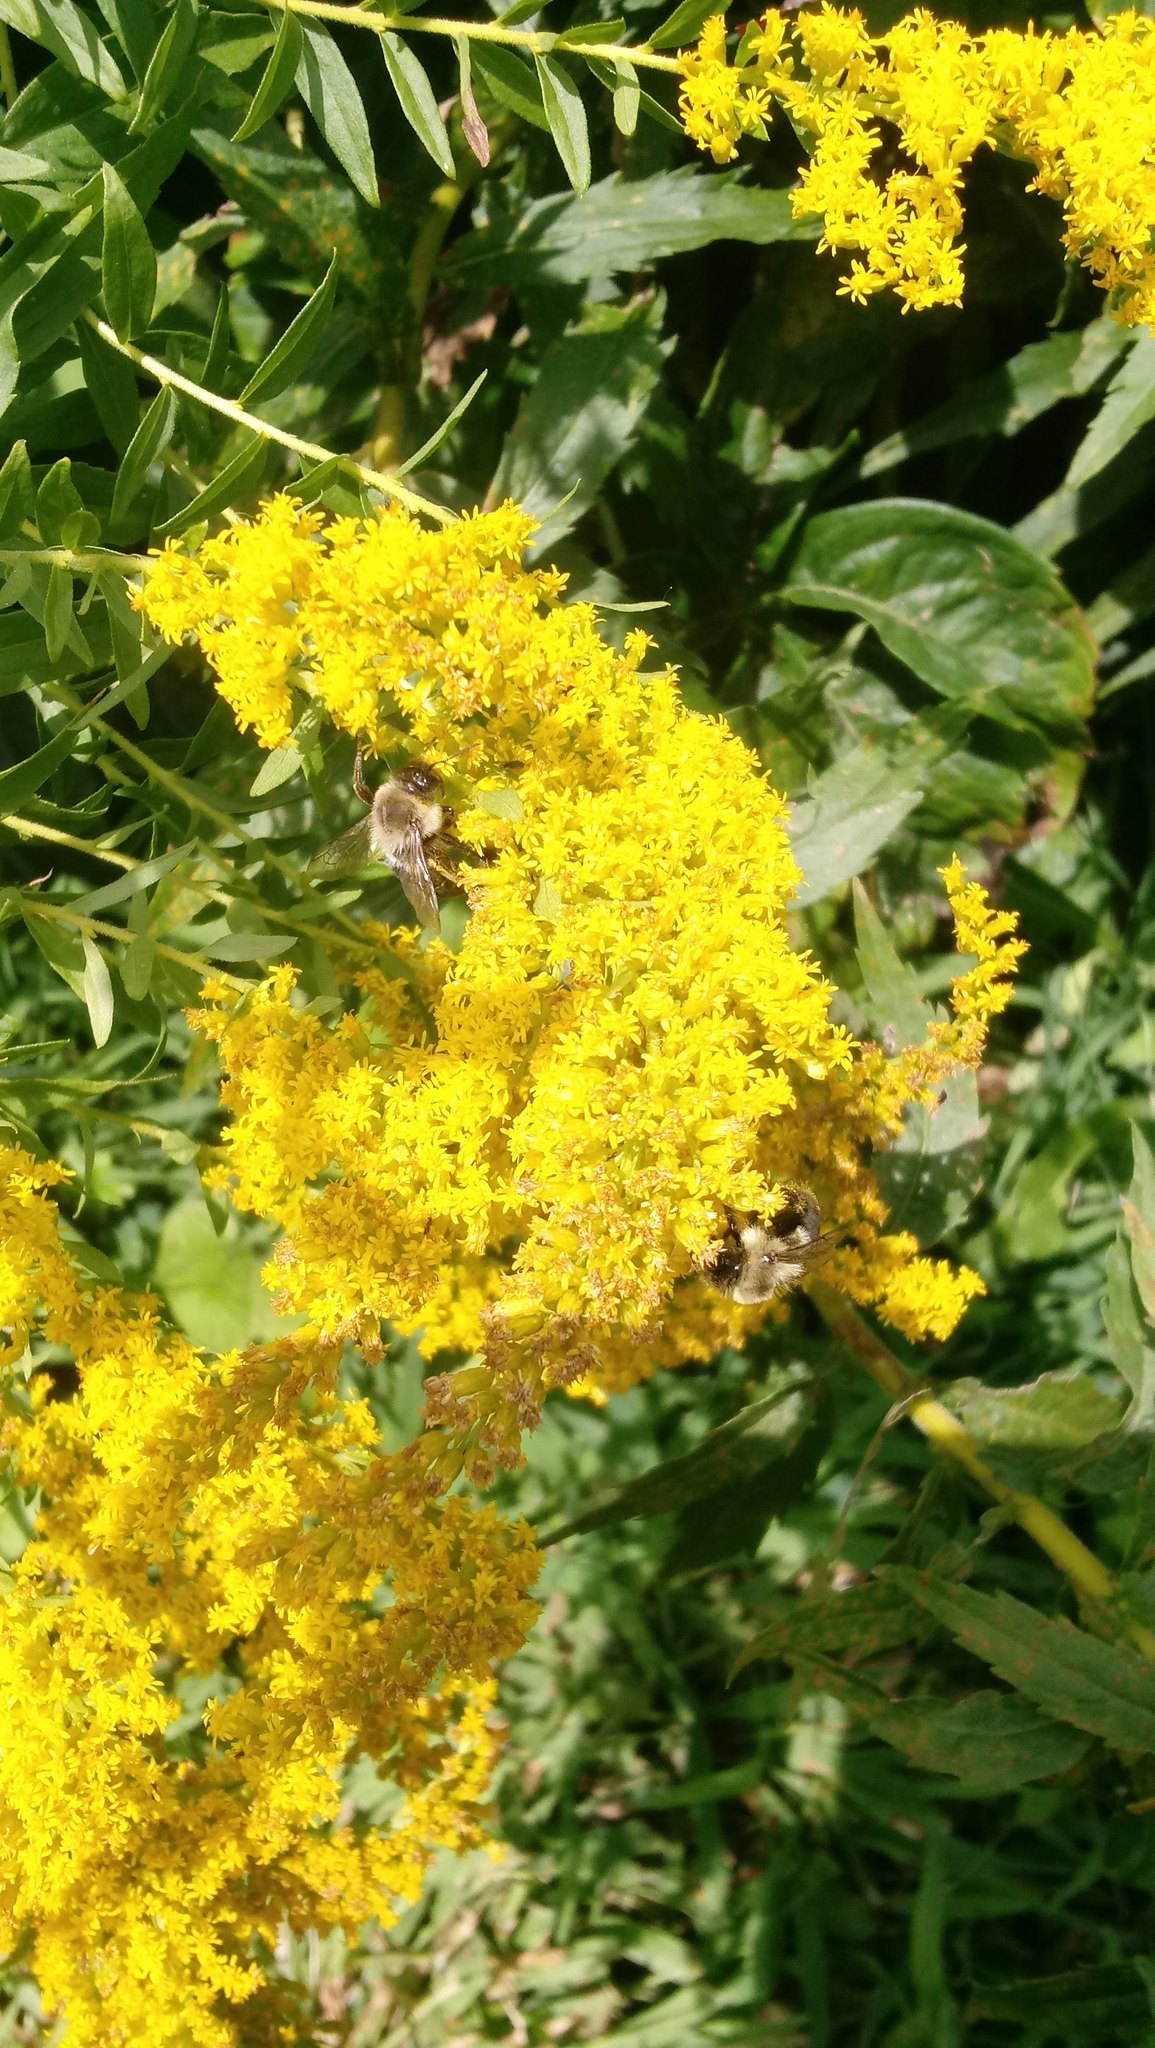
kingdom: Animalia
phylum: Arthropoda
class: Insecta
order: Hymenoptera
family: Apidae
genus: Bombus
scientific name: Bombus impatiens
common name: Common eastern bumble bee
